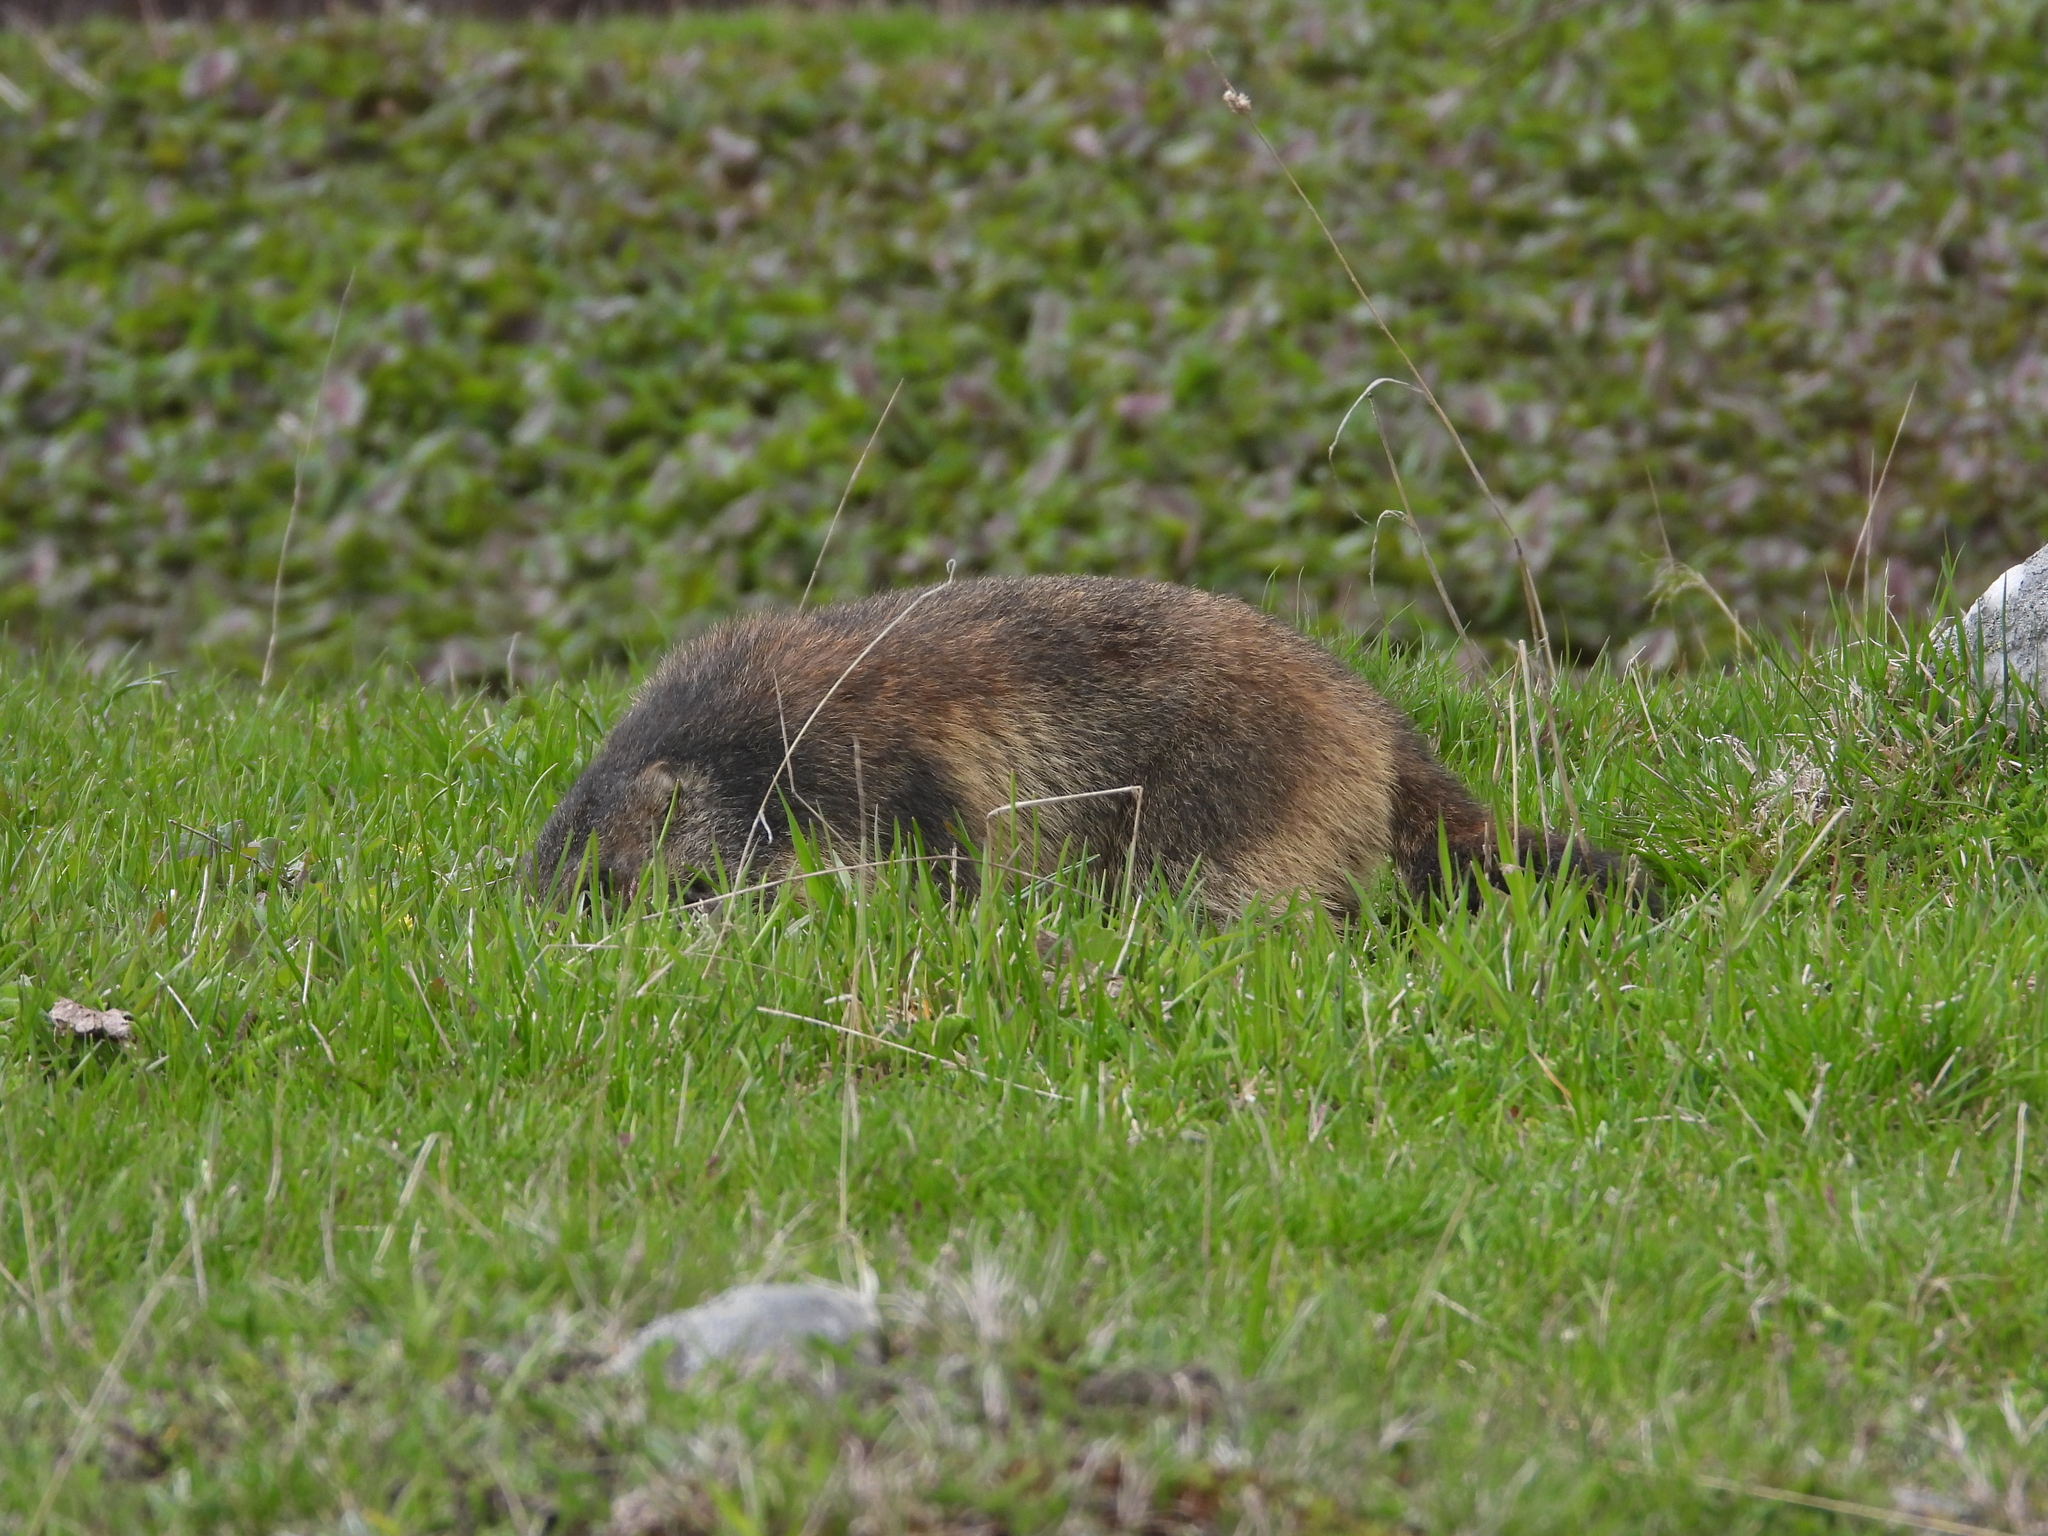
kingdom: Animalia
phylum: Chordata
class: Mammalia
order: Rodentia
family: Sciuridae
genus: Marmota
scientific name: Marmota marmota
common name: Alpine marmot
